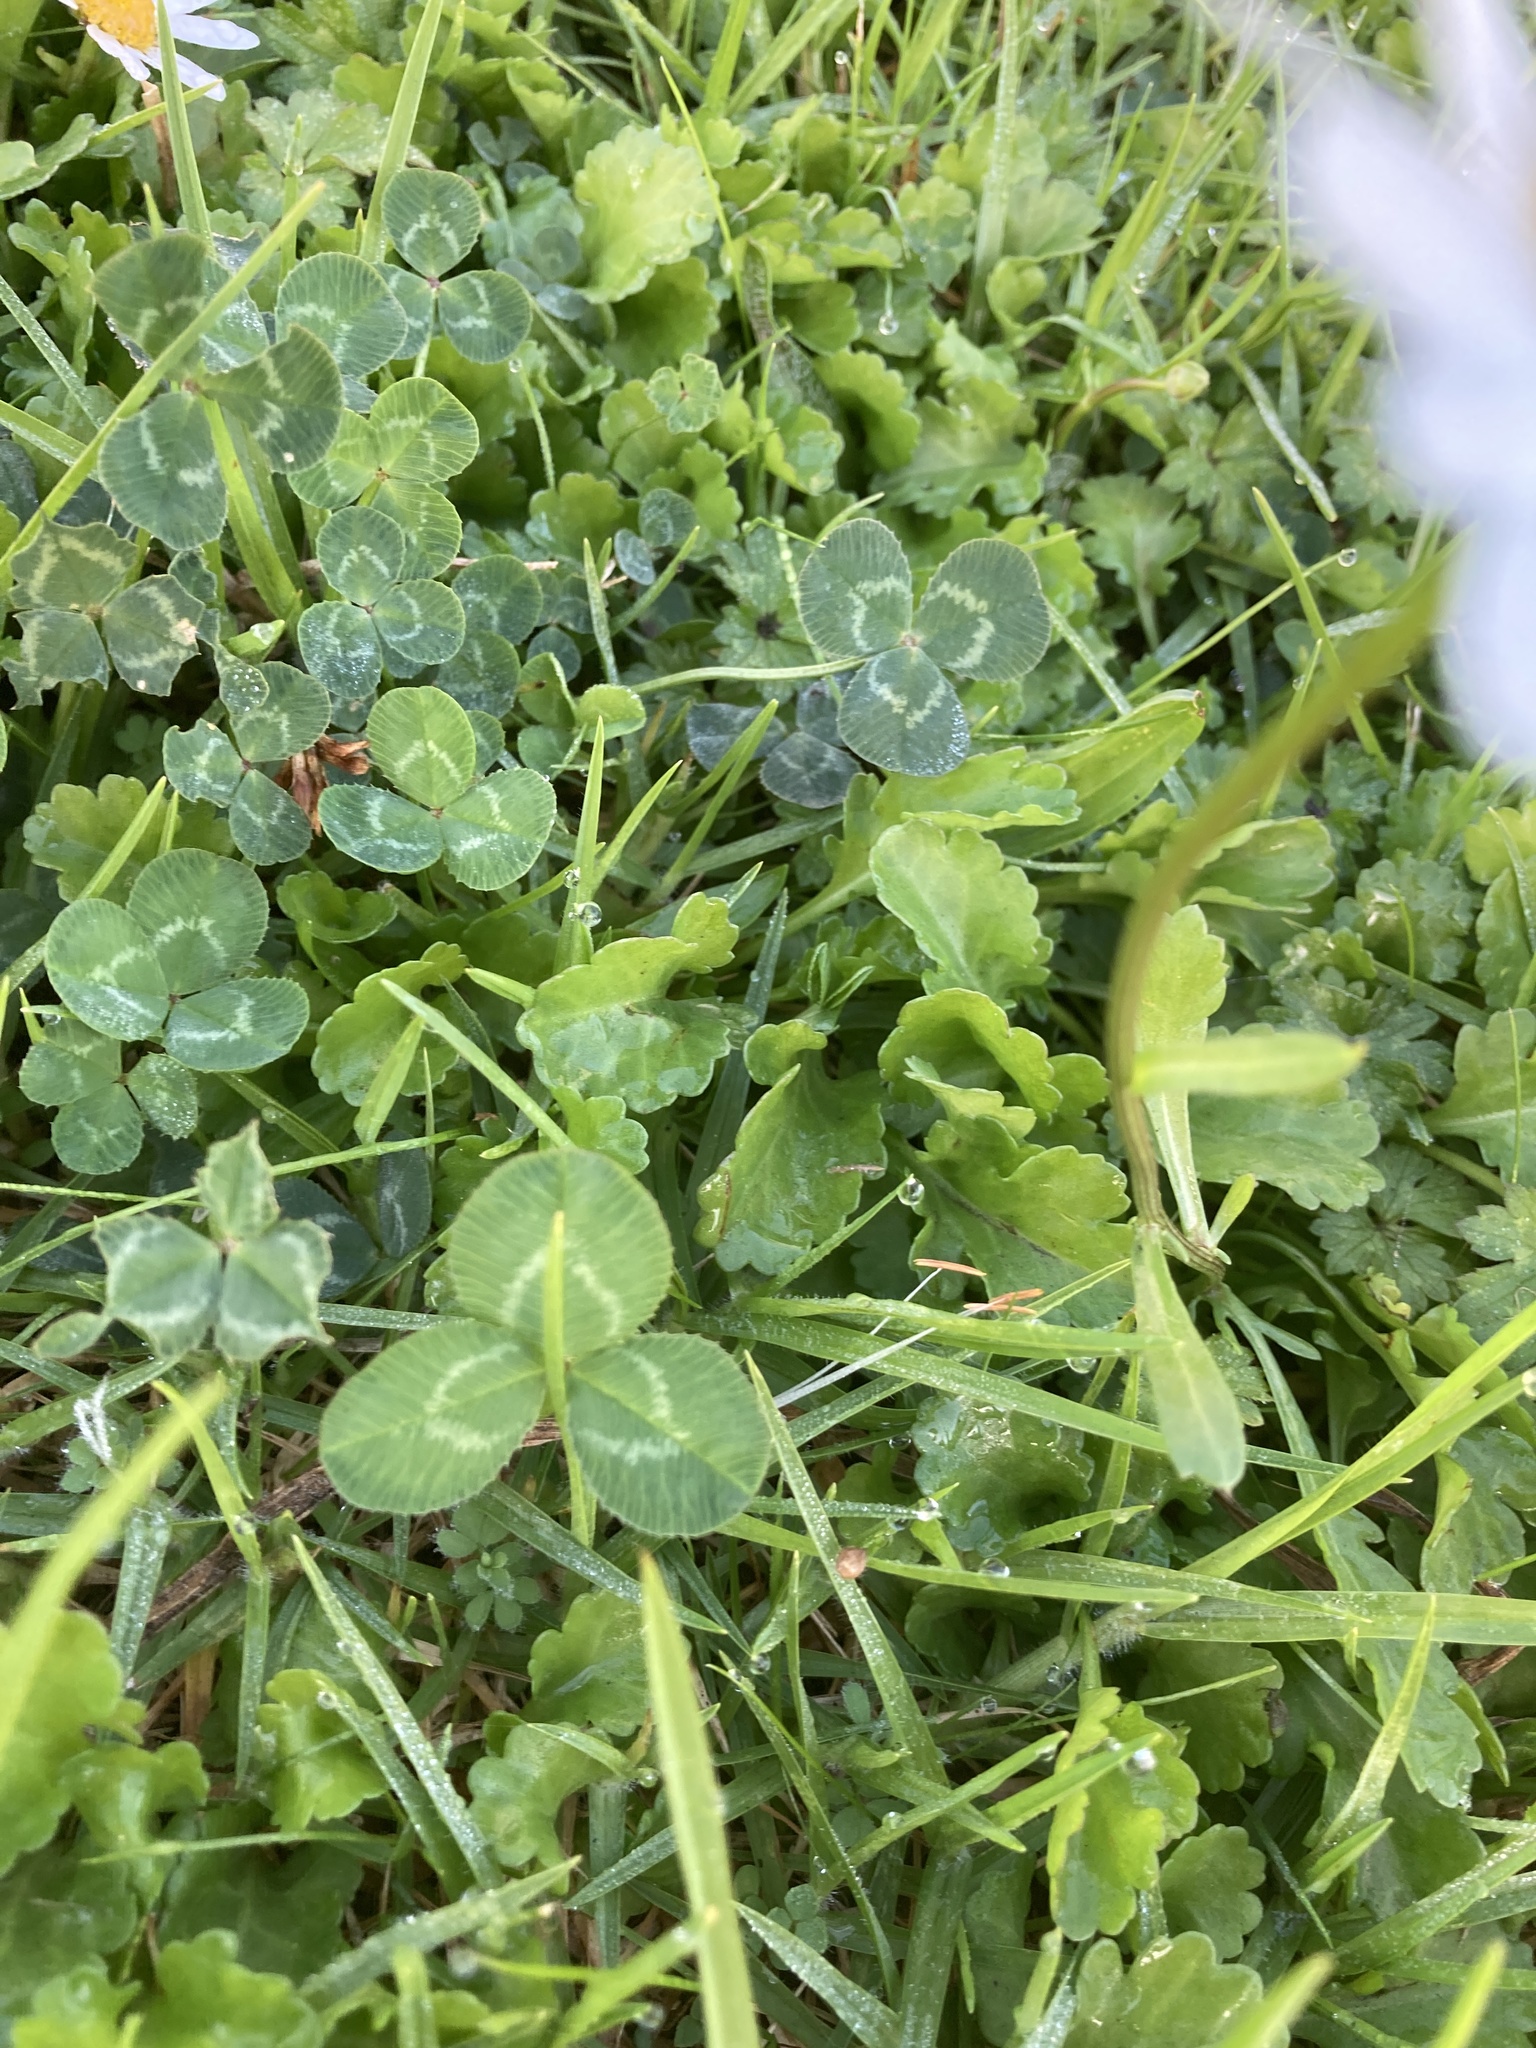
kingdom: Plantae
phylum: Tracheophyta
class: Magnoliopsida
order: Fabales
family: Fabaceae
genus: Trifolium
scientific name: Trifolium repens
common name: White clover
